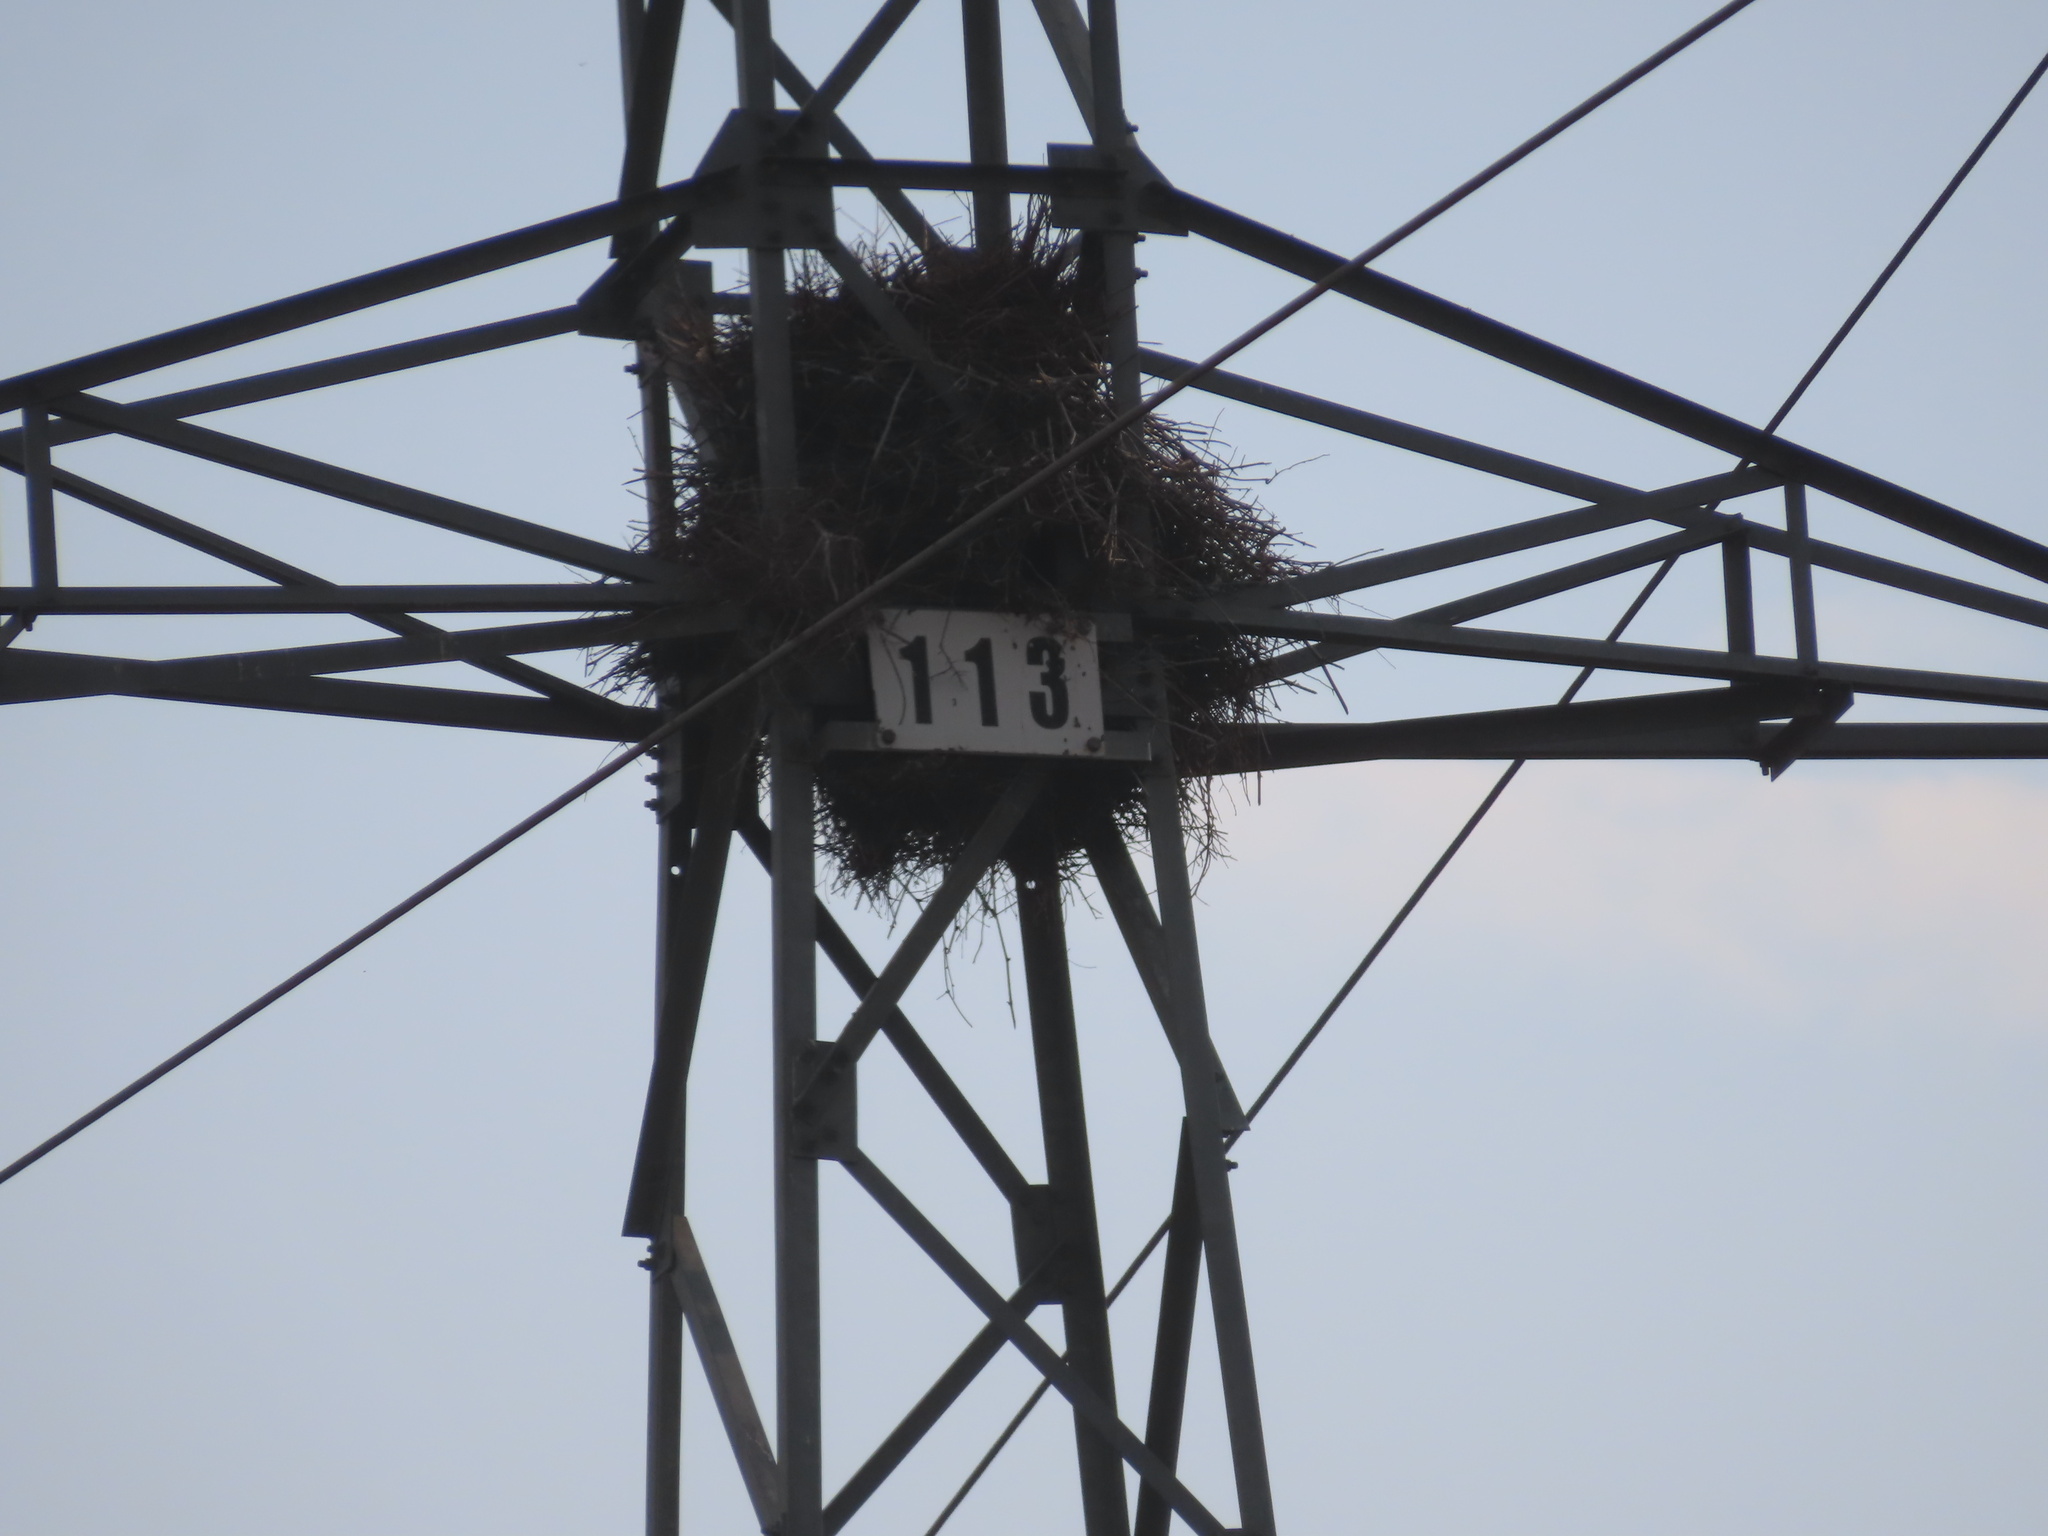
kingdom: Animalia
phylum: Chordata
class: Aves
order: Psittaciformes
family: Psittacidae
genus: Myiopsitta
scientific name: Myiopsitta monachus
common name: Monk parakeet
